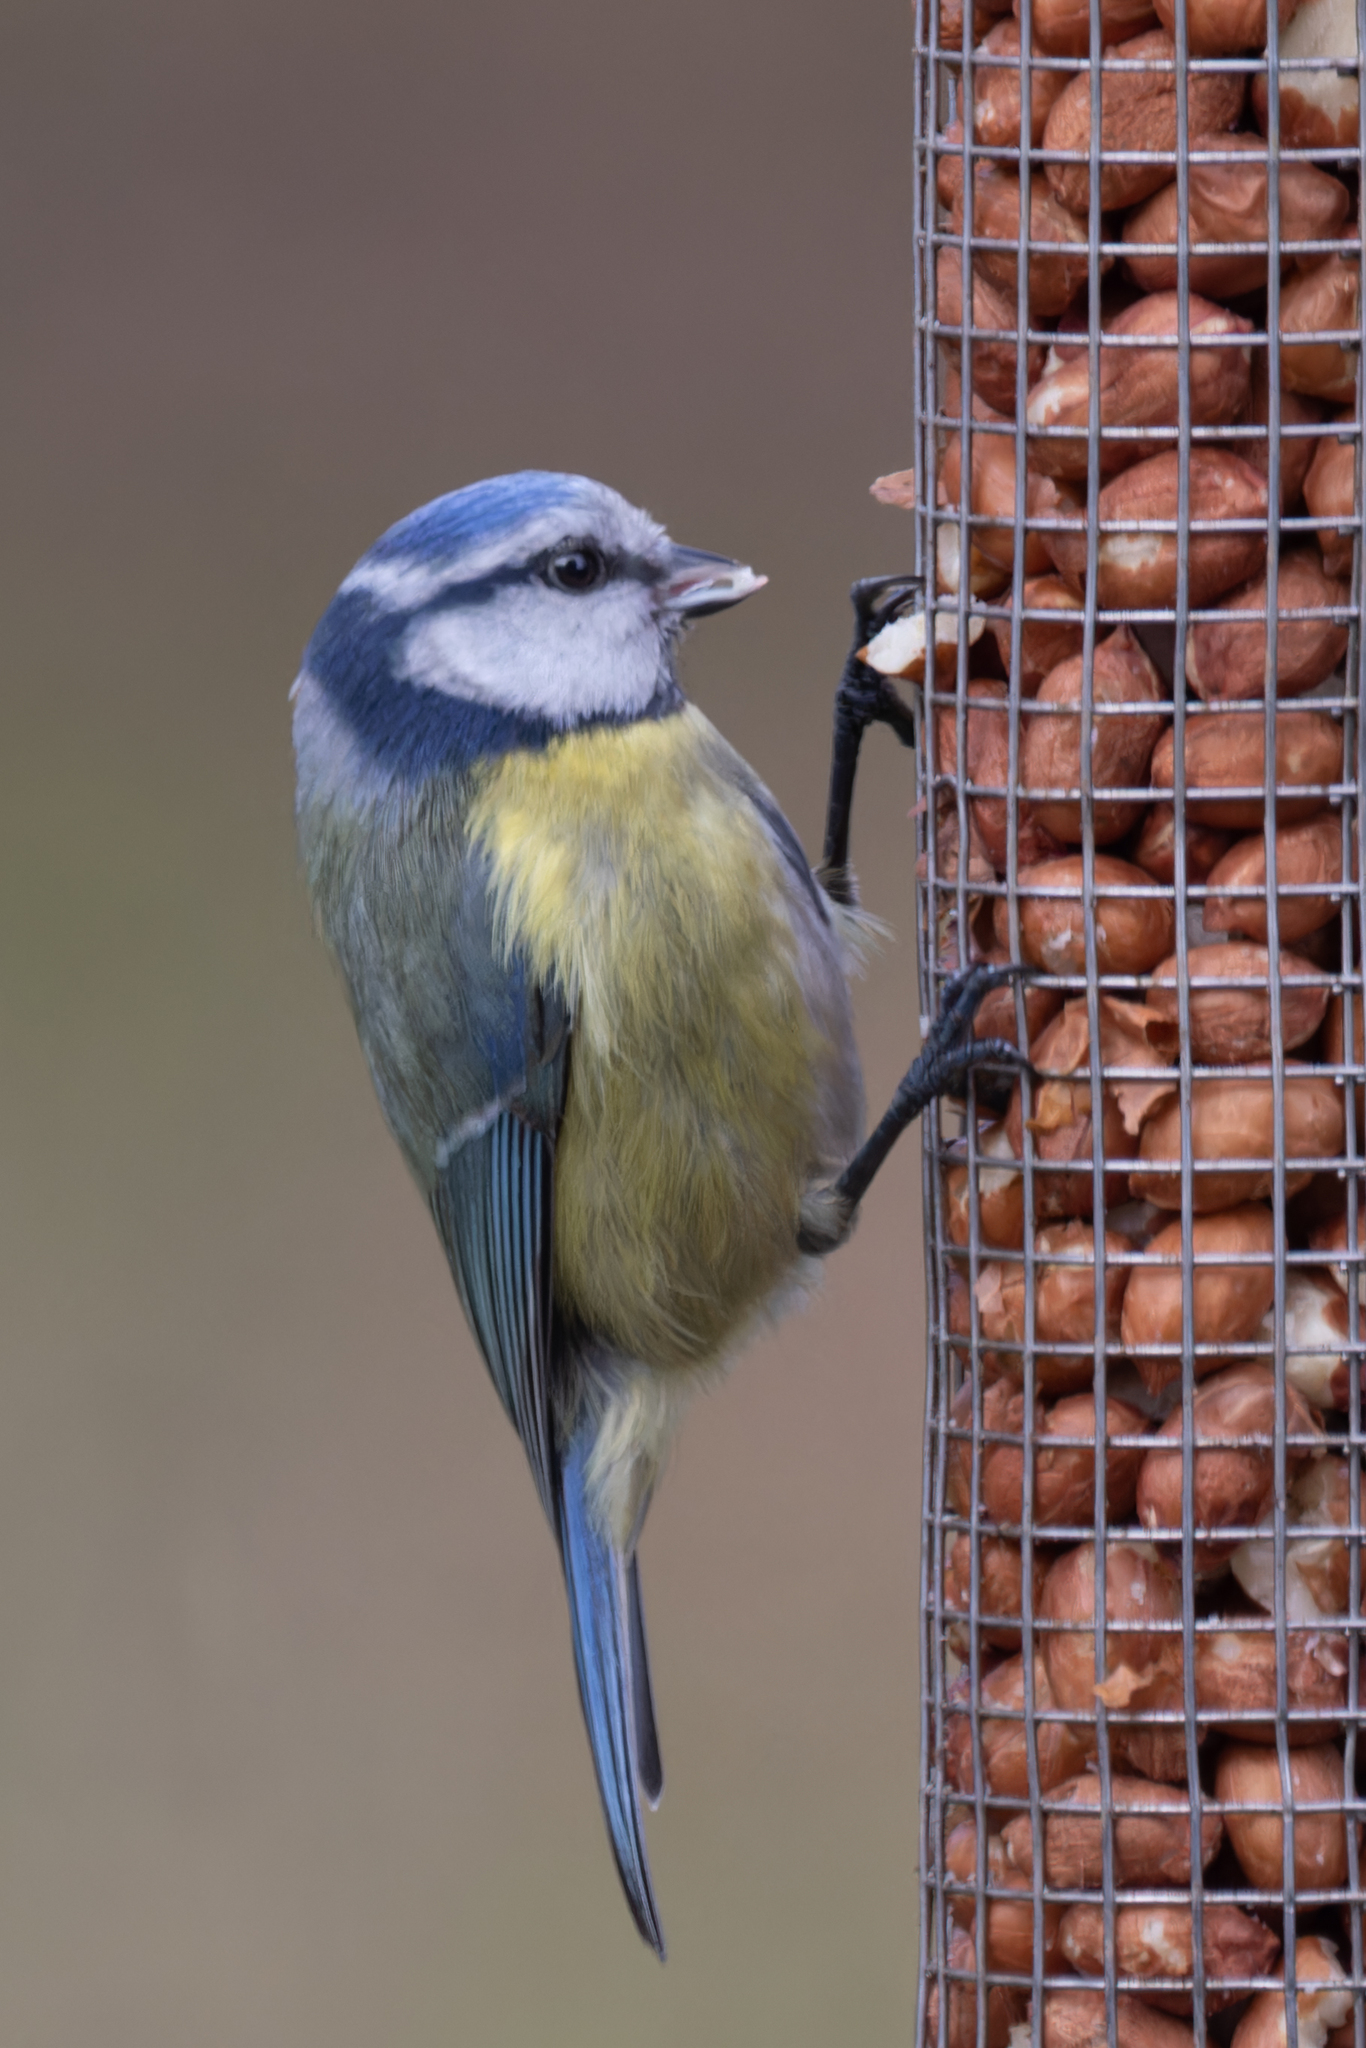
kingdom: Animalia
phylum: Chordata
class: Aves
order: Passeriformes
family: Paridae
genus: Cyanistes
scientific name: Cyanistes caeruleus
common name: Eurasian blue tit
